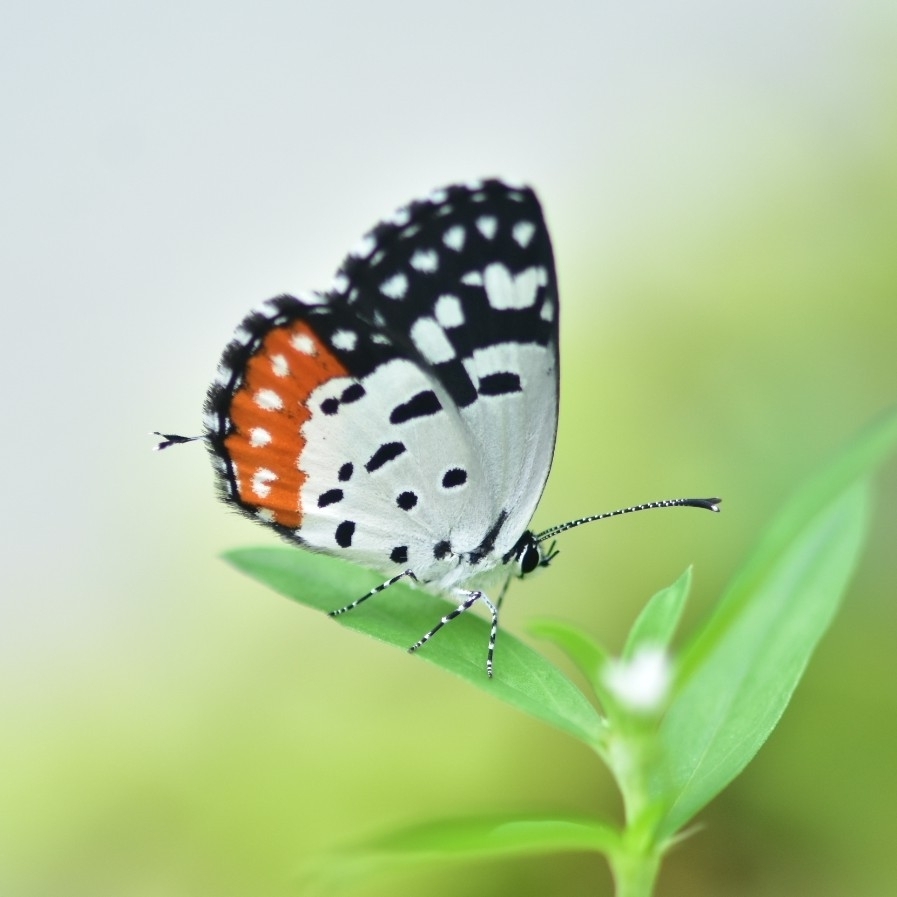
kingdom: Animalia
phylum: Arthropoda
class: Insecta
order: Lepidoptera
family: Lycaenidae
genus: Talicada
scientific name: Talicada nyseus
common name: Red pierrot
